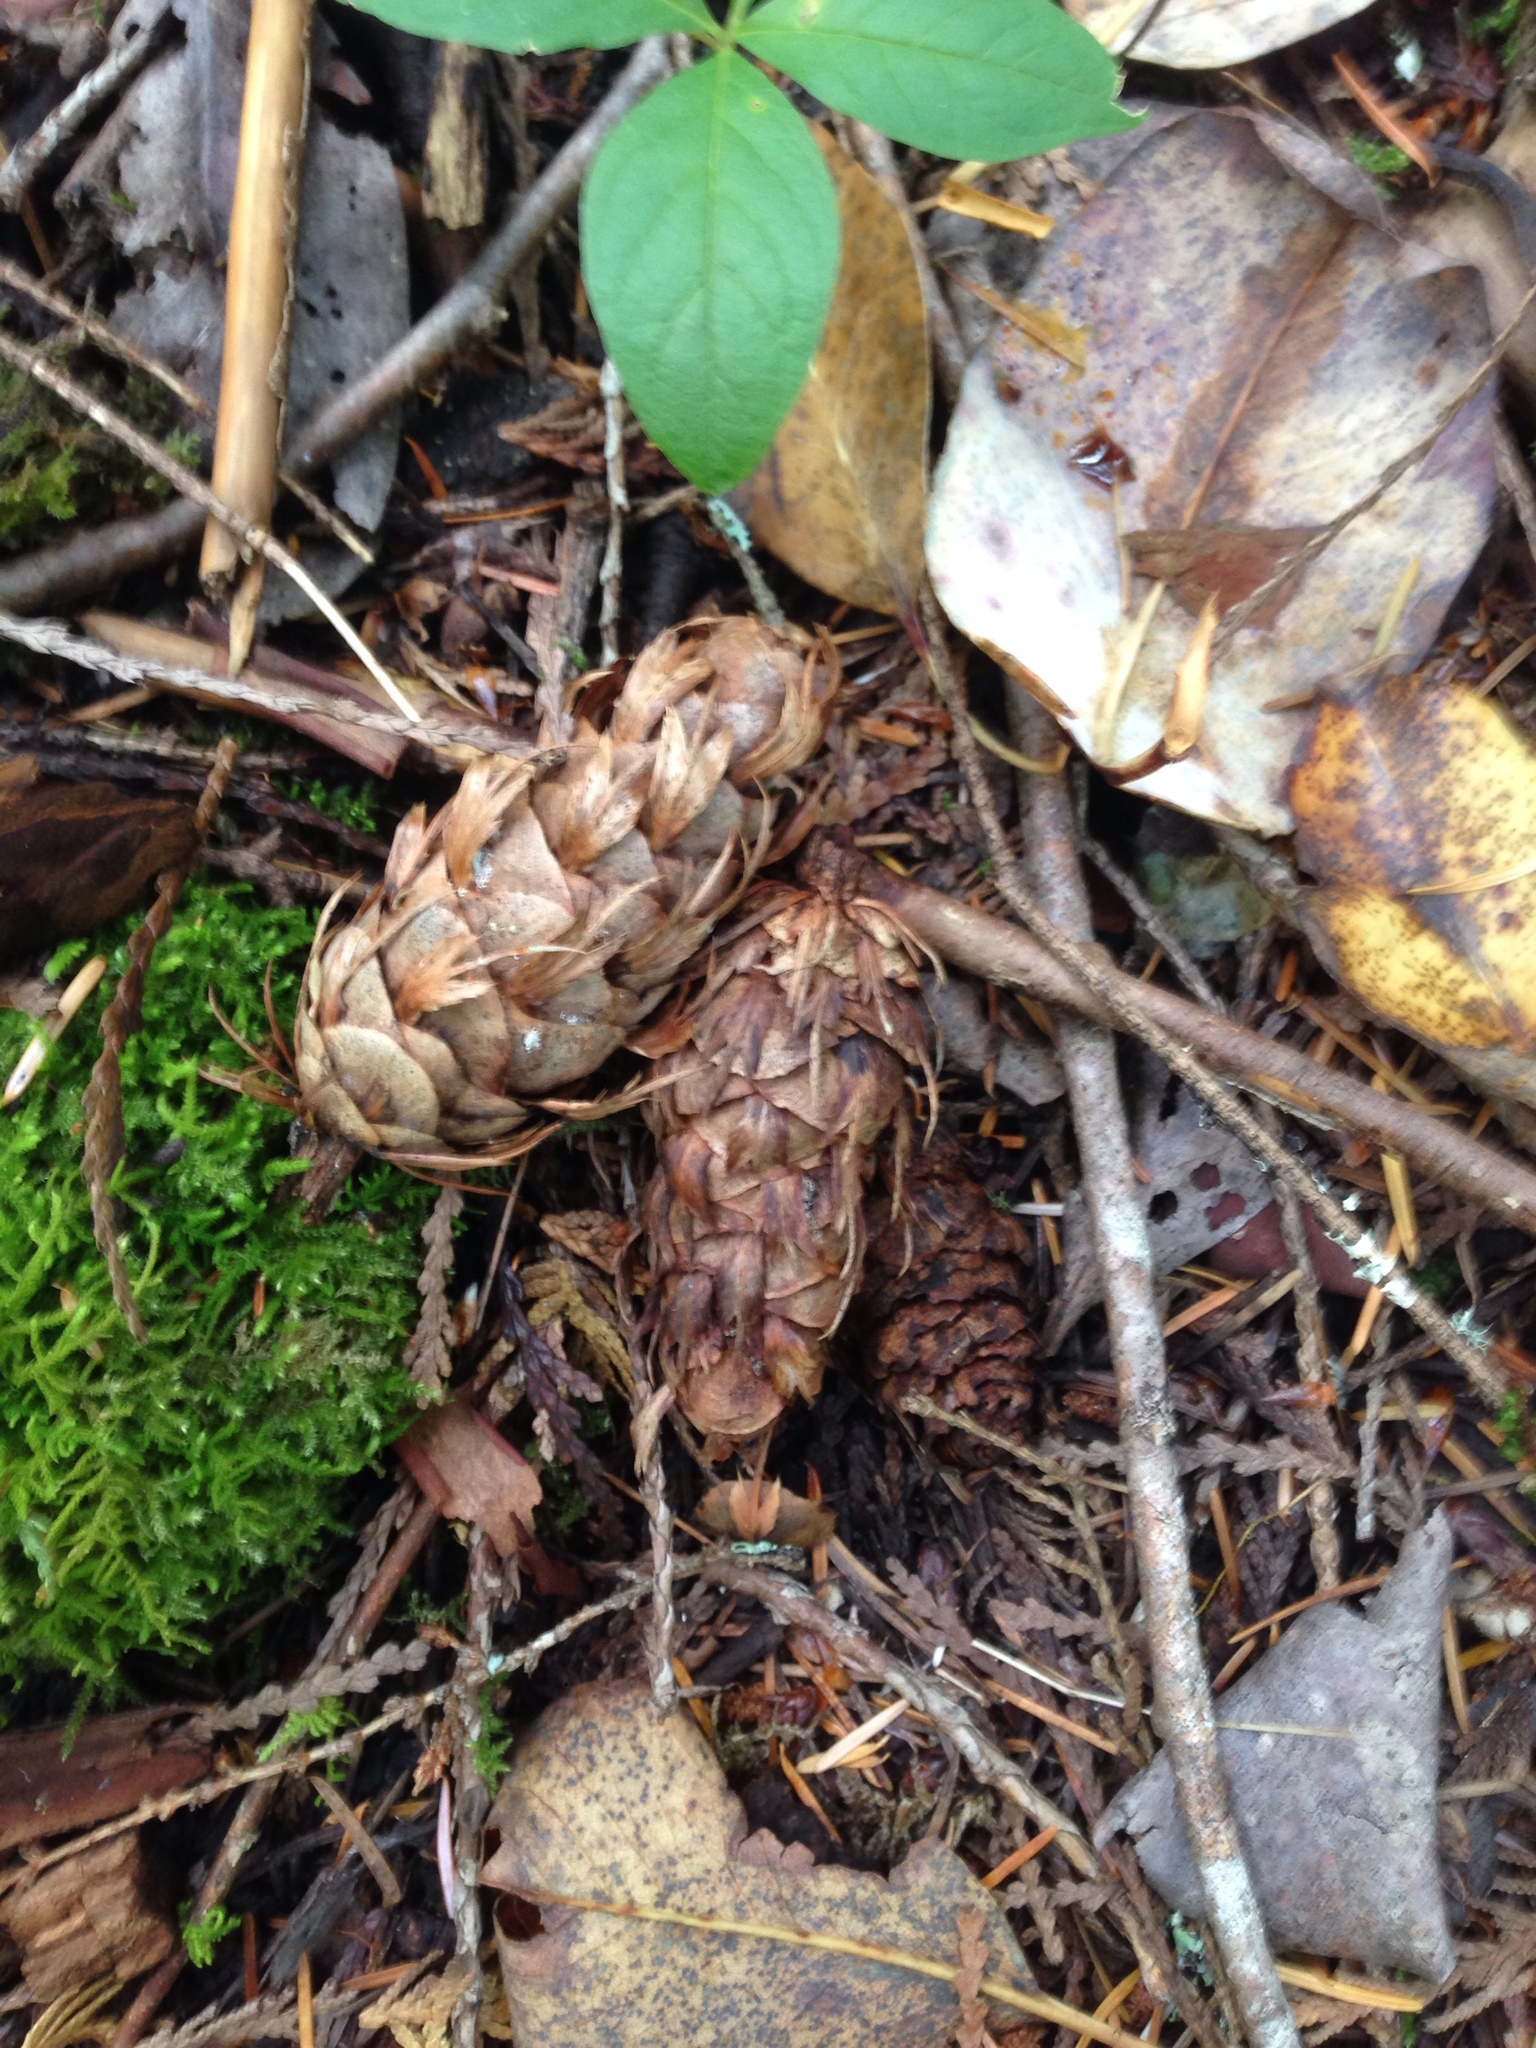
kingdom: Plantae
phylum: Tracheophyta
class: Pinopsida
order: Pinales
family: Pinaceae
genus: Pseudotsuga
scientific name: Pseudotsuga menziesii
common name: Douglas fir
